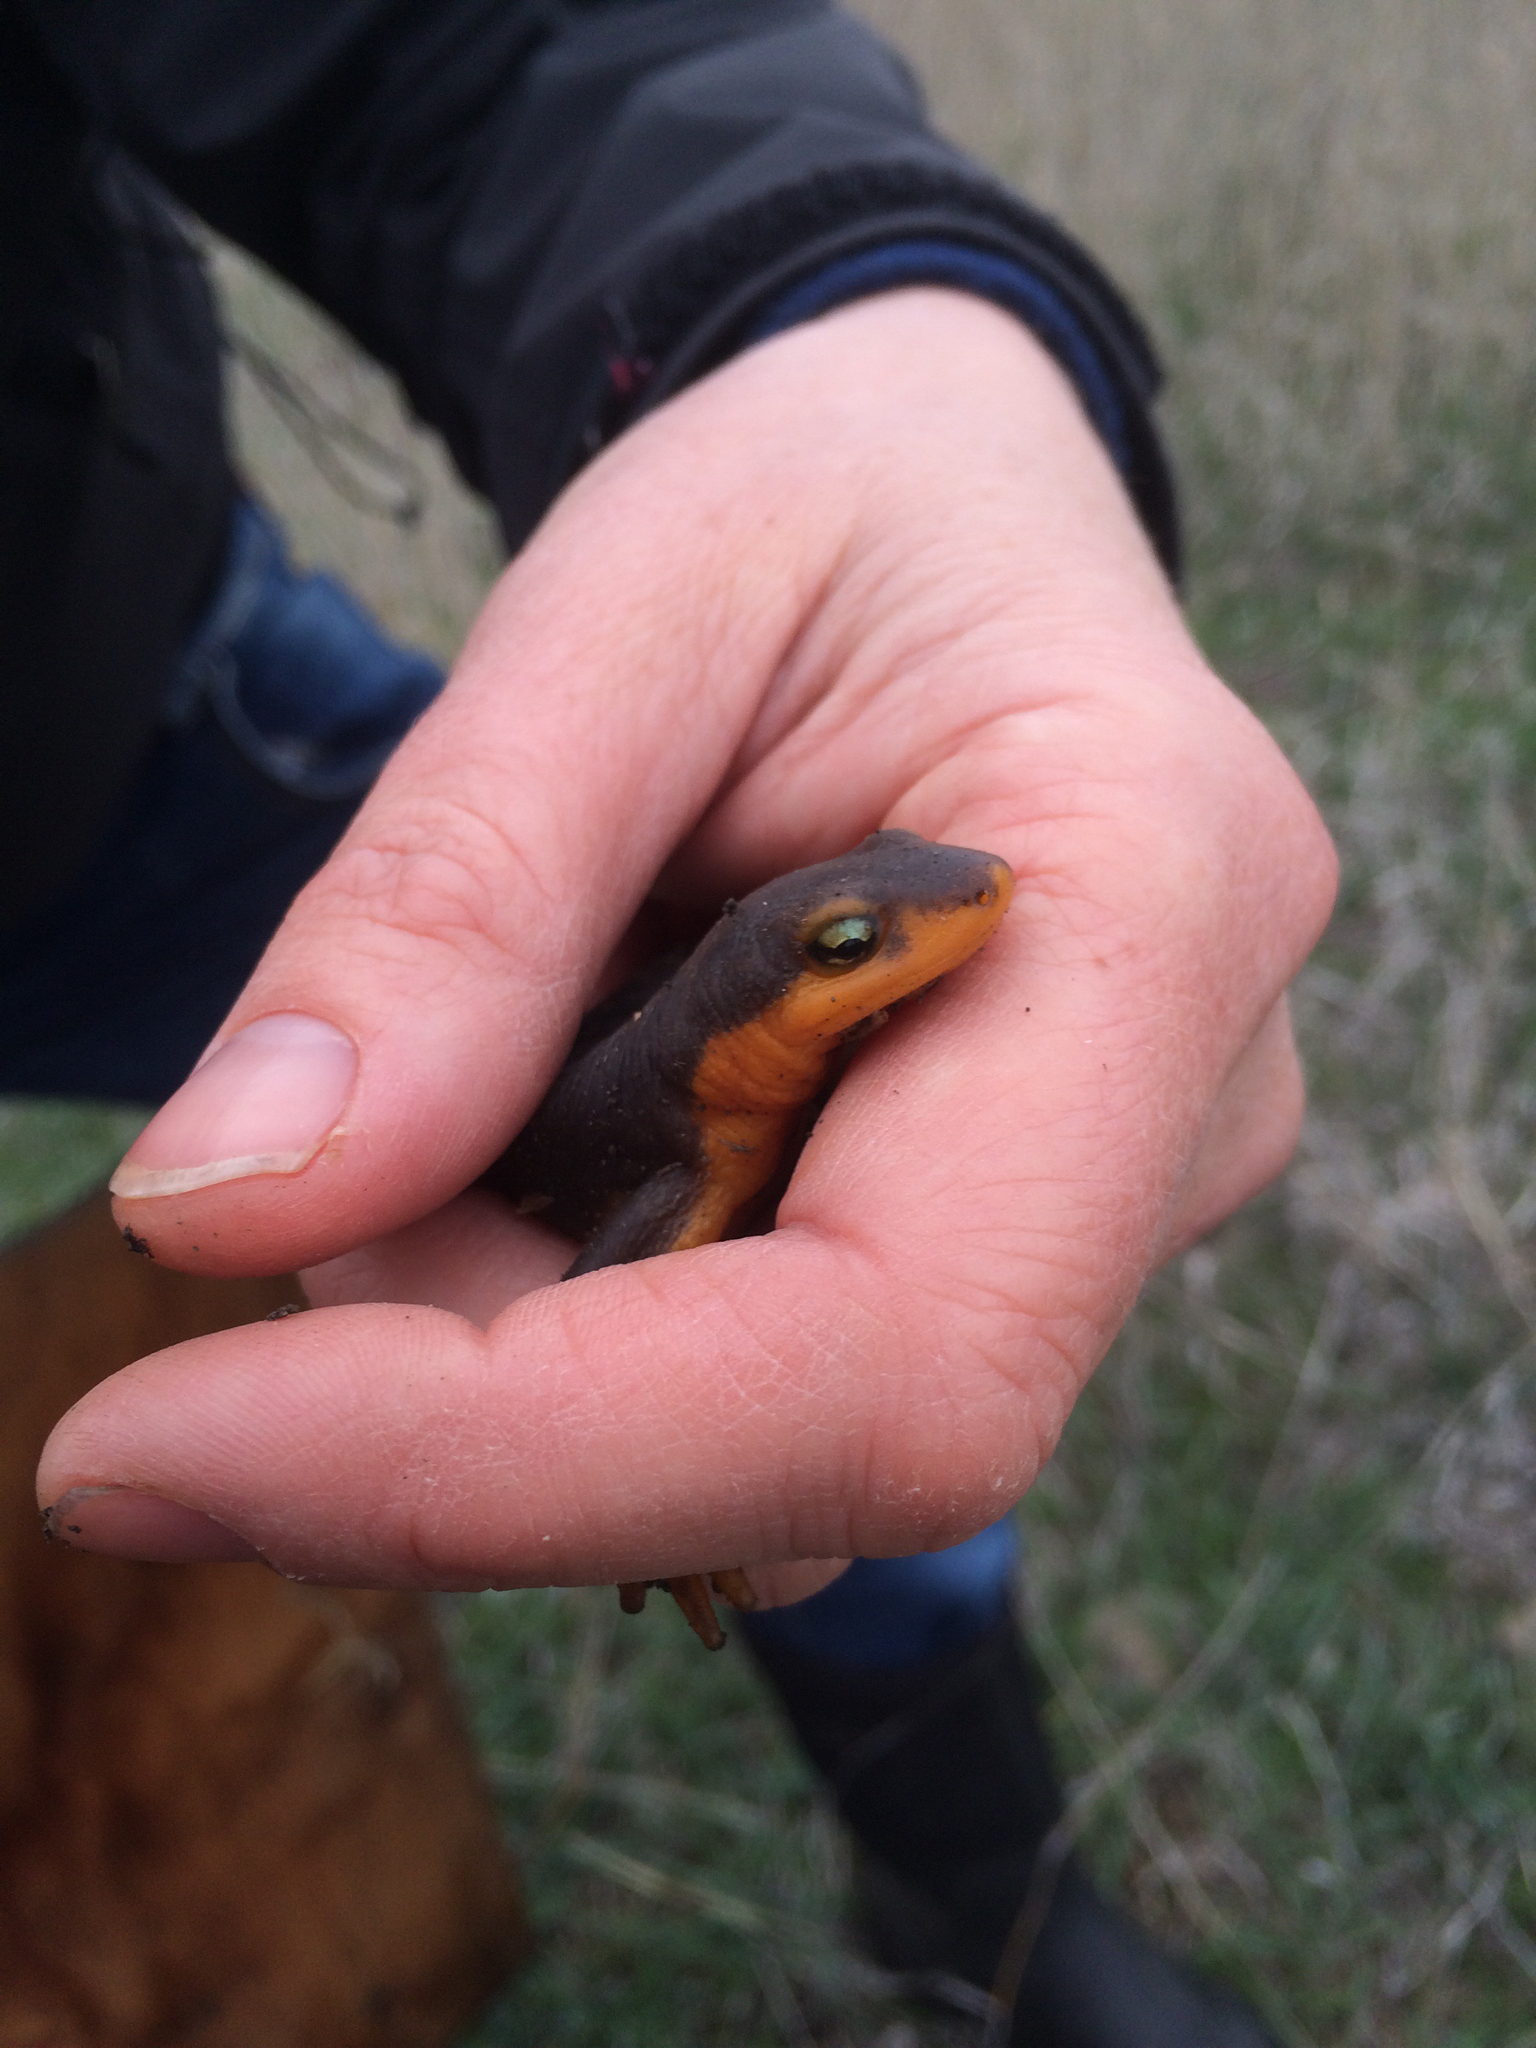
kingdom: Animalia
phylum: Chordata
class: Amphibia
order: Caudata
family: Salamandridae
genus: Taricha
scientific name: Taricha torosa
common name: California newt
